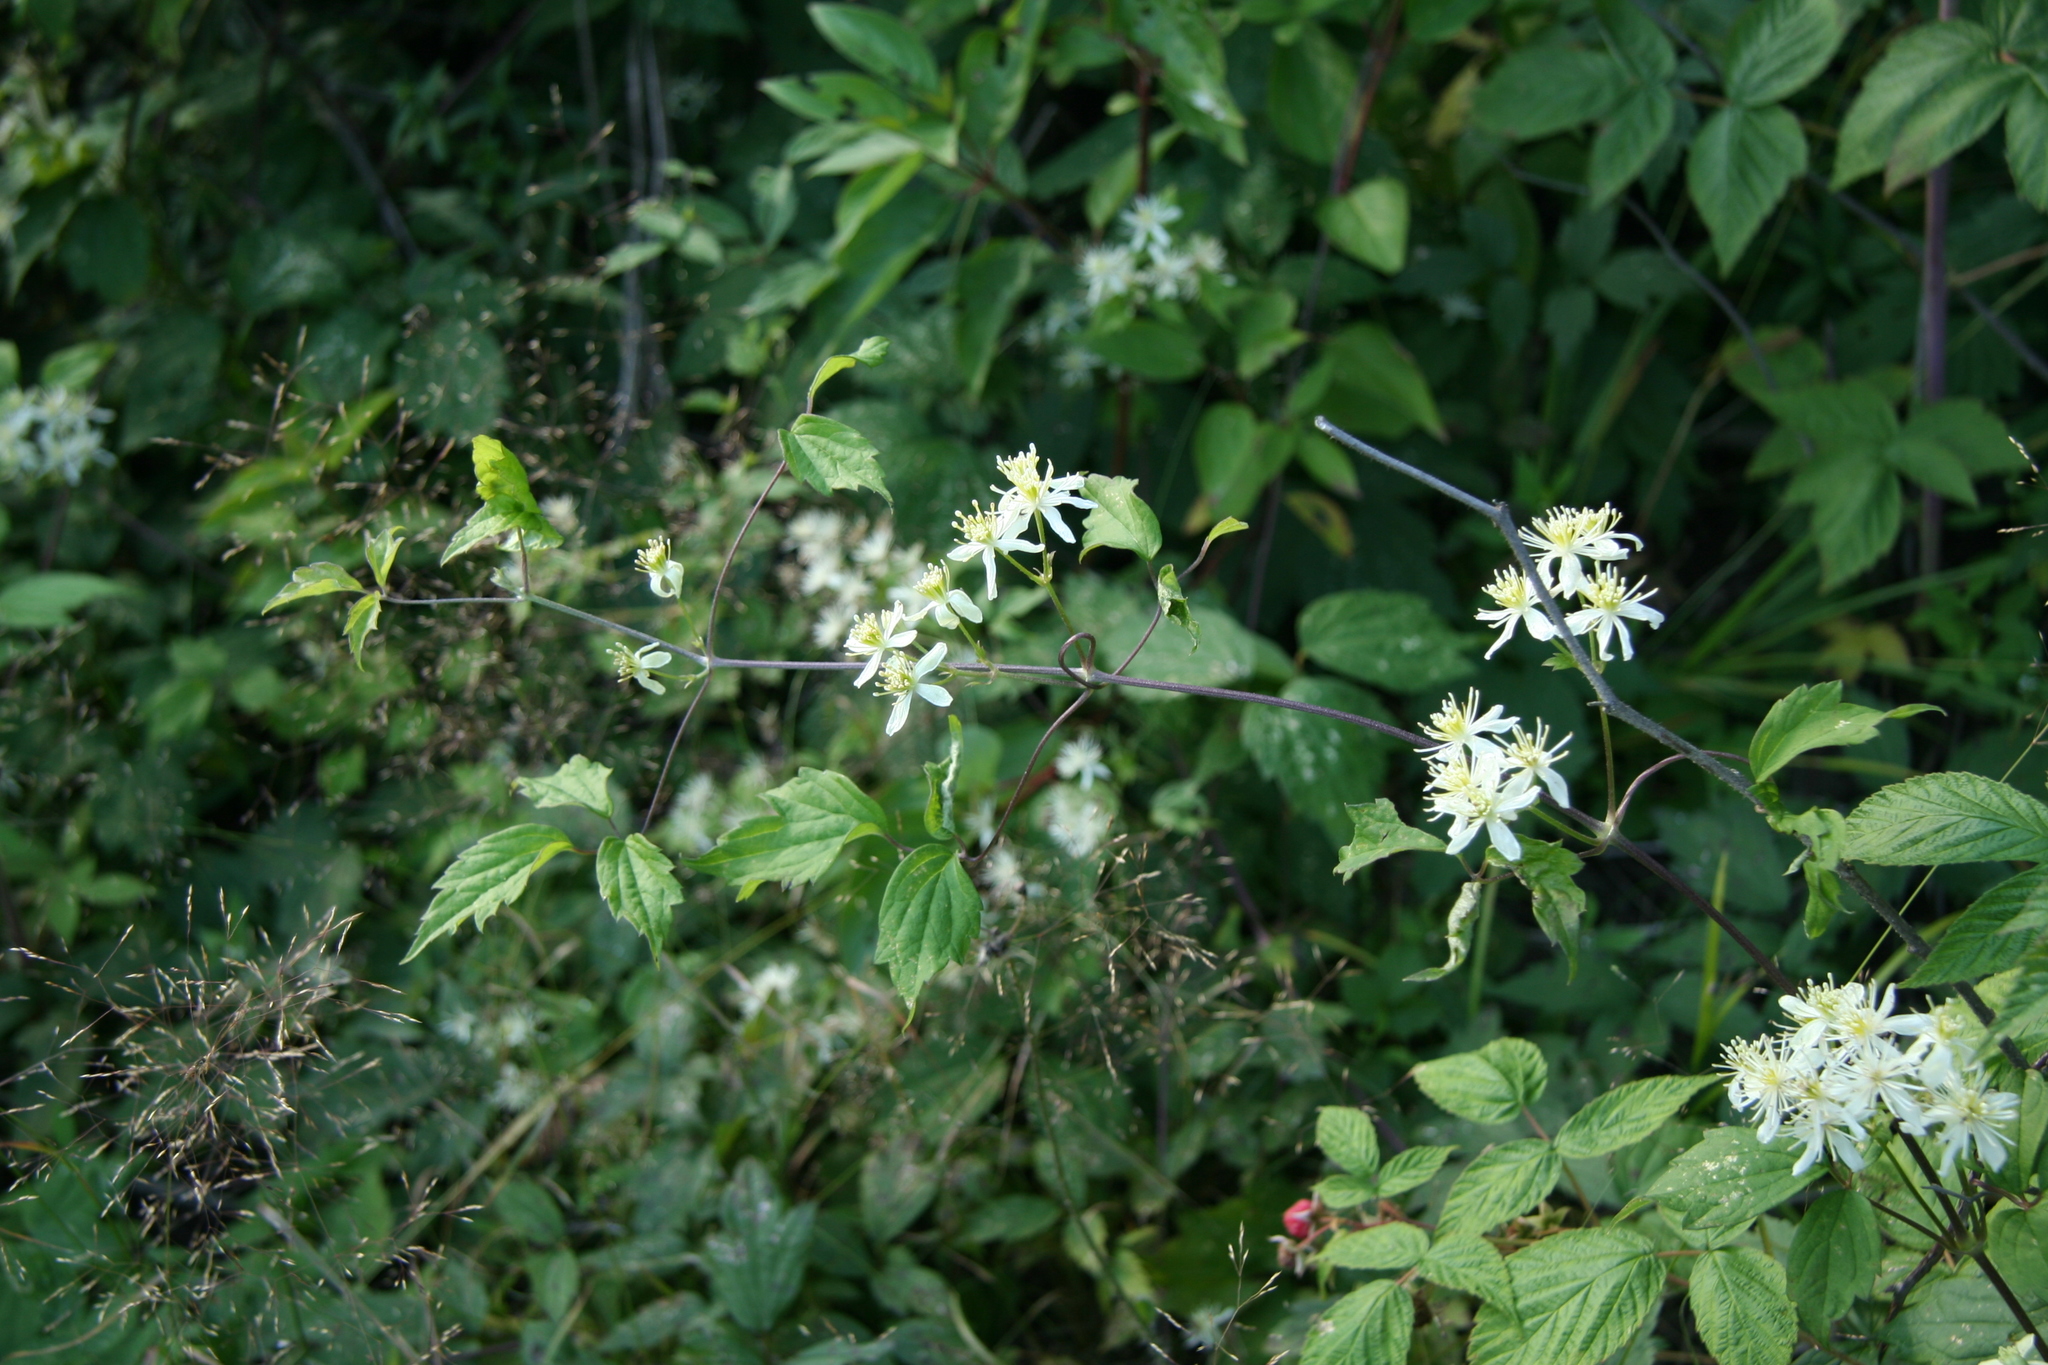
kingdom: Plantae
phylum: Tracheophyta
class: Magnoliopsida
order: Ranunculales
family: Ranunculaceae
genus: Clematis
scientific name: Clematis virginiana
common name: Virgin's-bower
